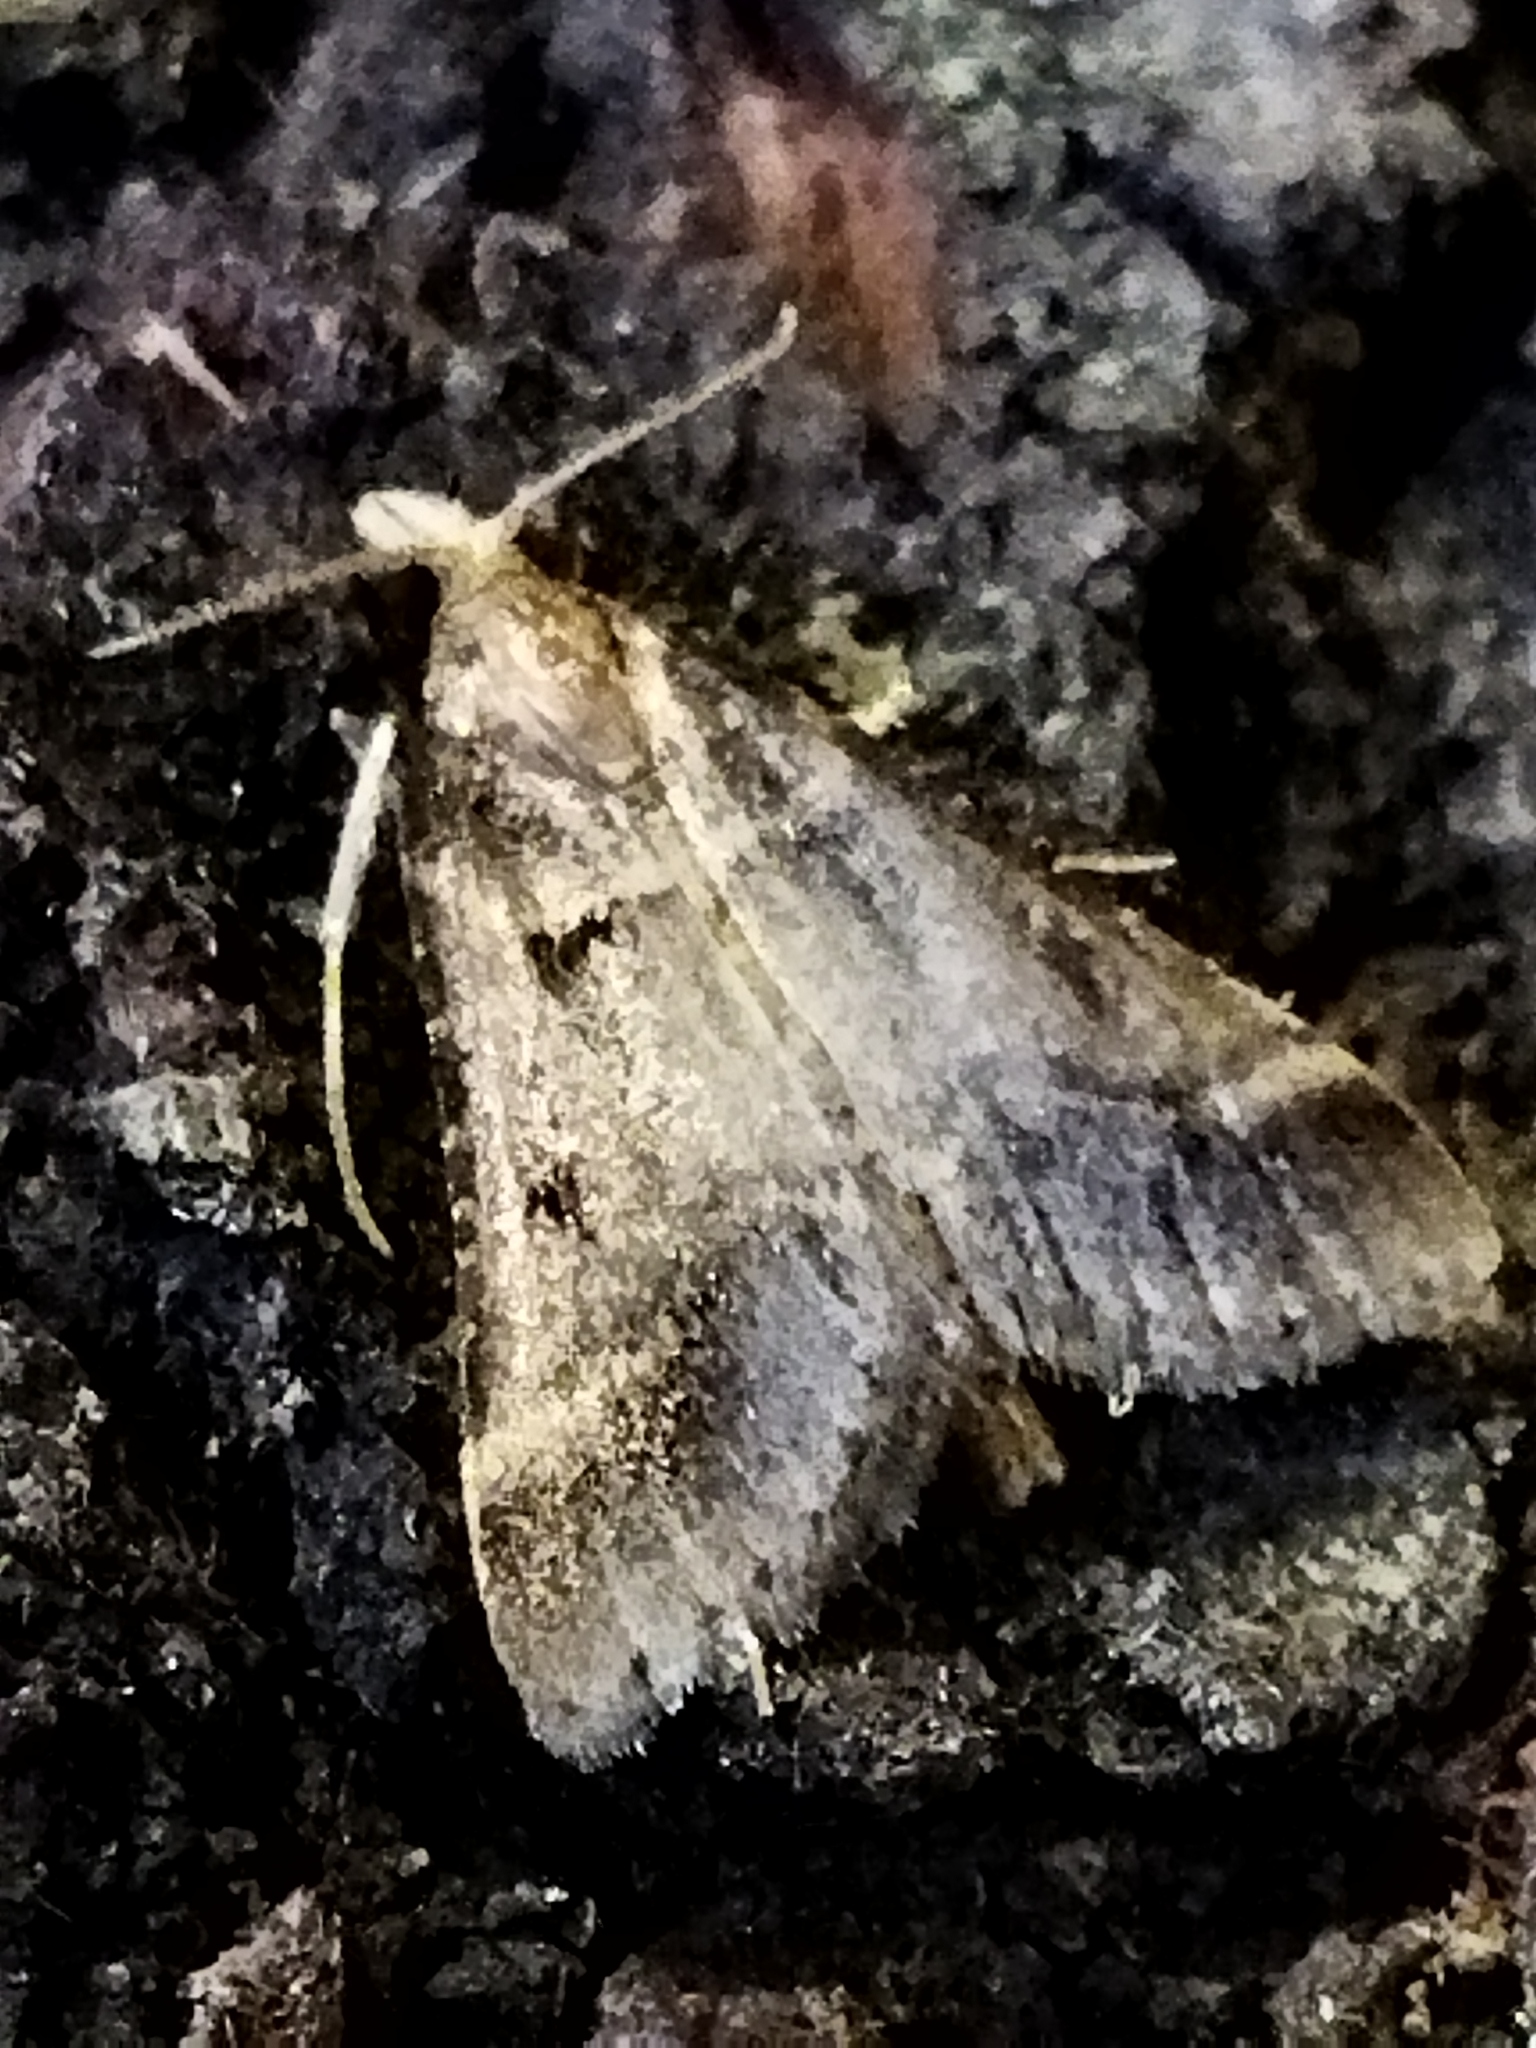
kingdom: Animalia
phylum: Arthropoda
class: Insecta
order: Lepidoptera
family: Pyralidae
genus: Stemmatophora
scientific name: Stemmatophora brunnealis
